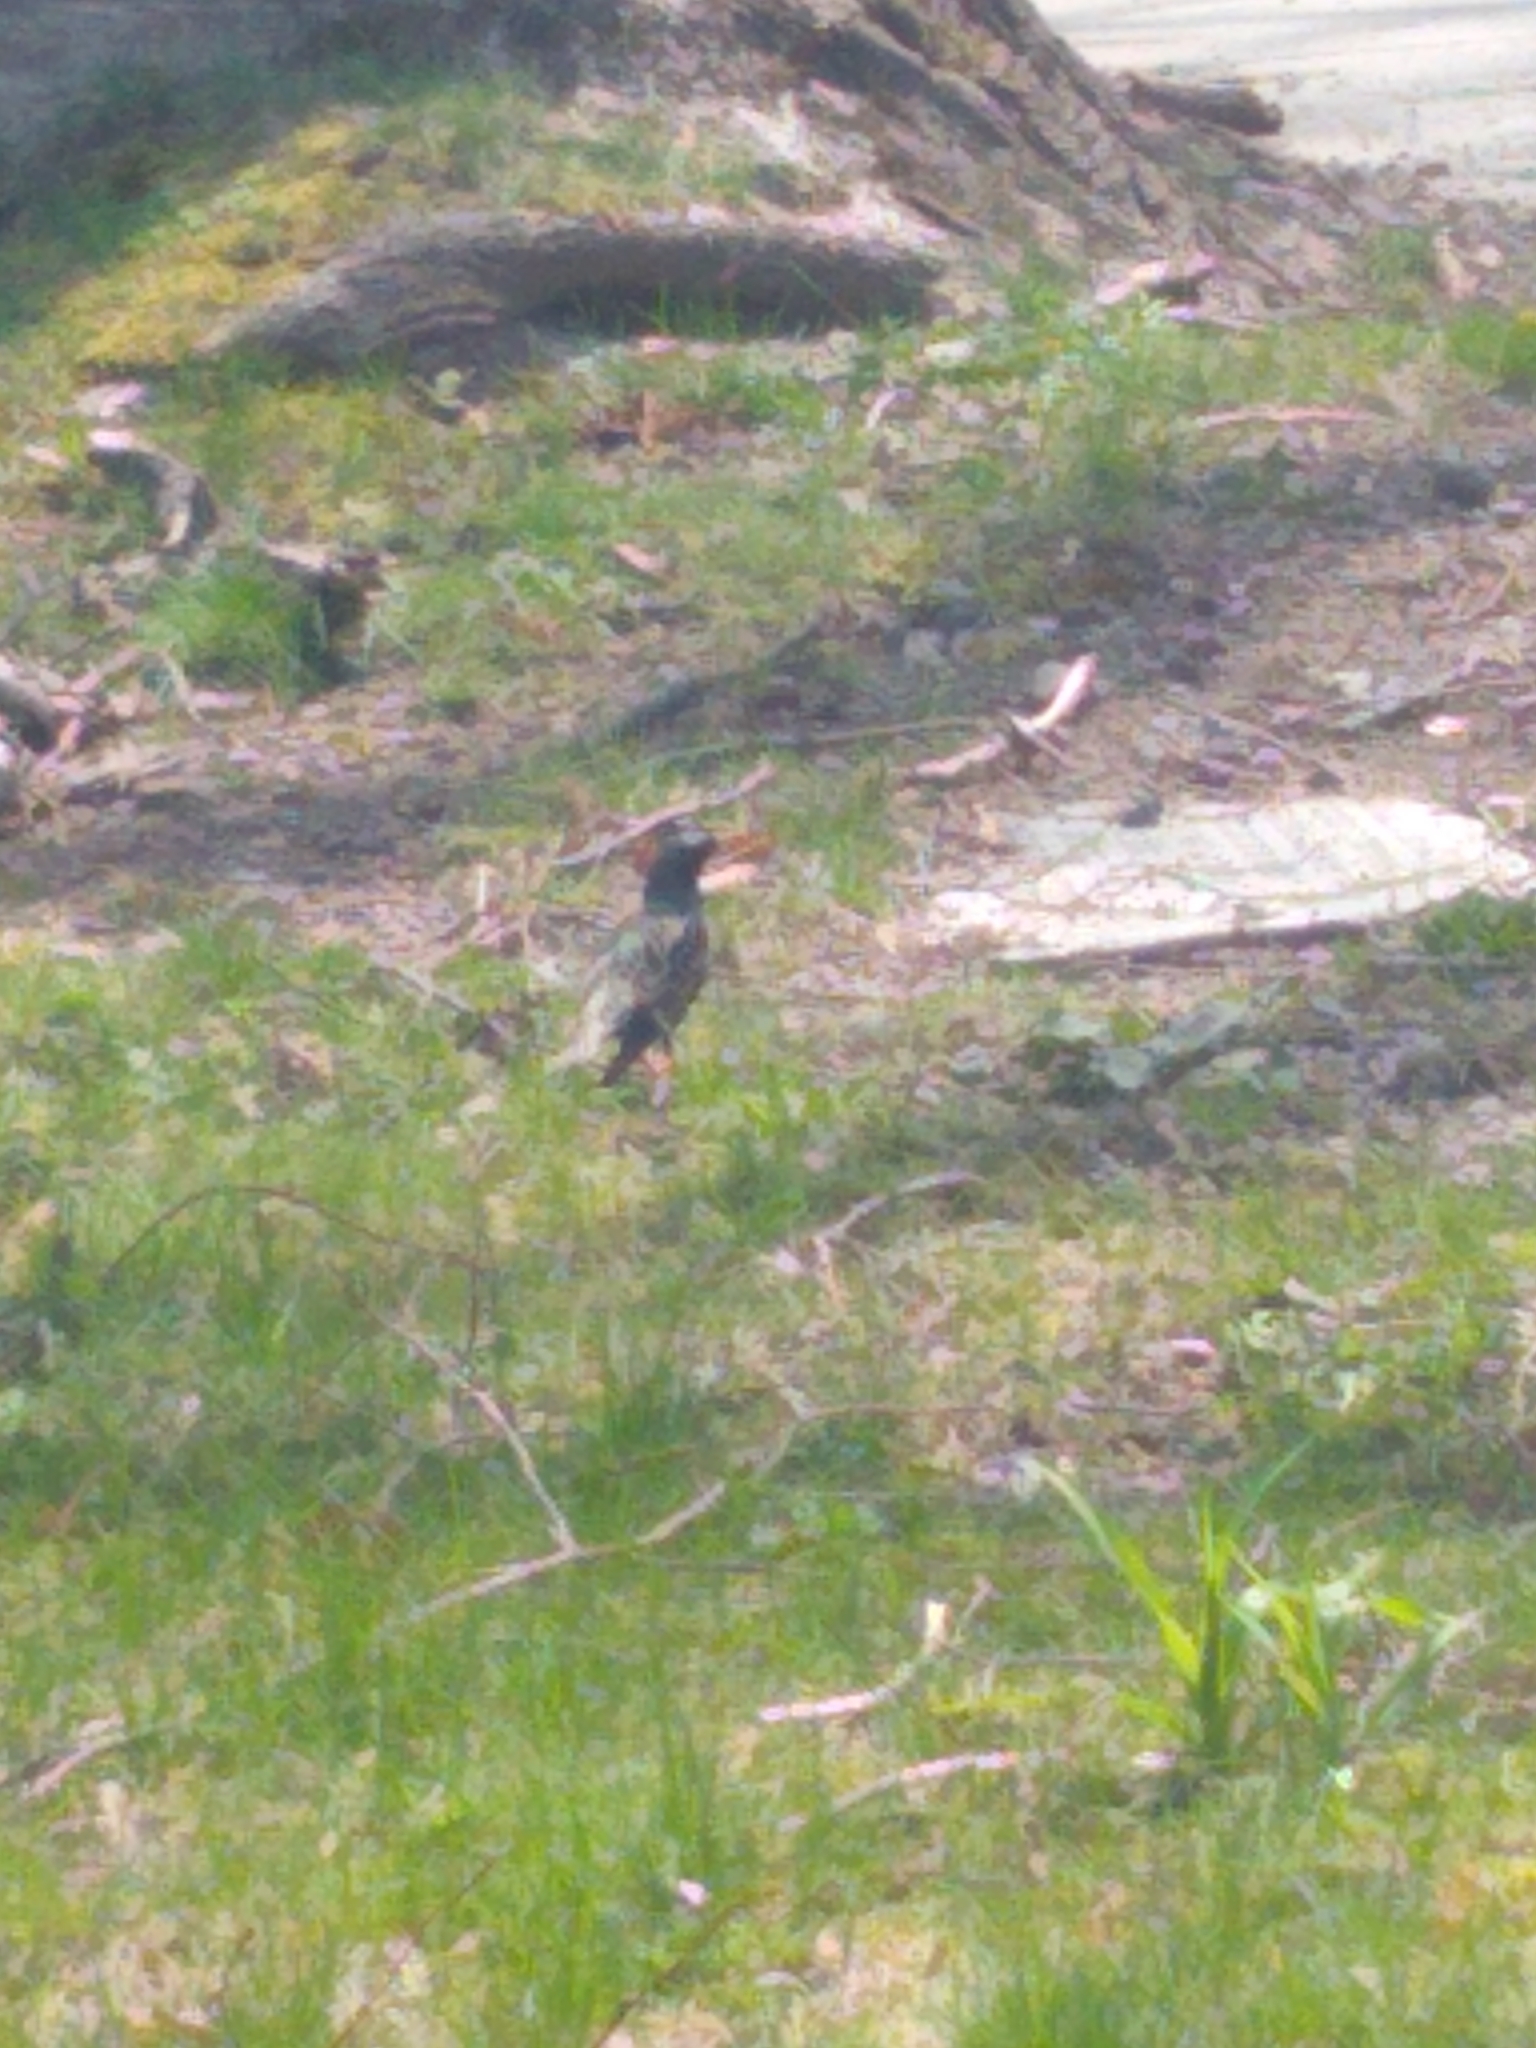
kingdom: Animalia
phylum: Chordata
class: Aves
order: Passeriformes
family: Sturnidae
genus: Sturnus
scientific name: Sturnus vulgaris
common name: Common starling
